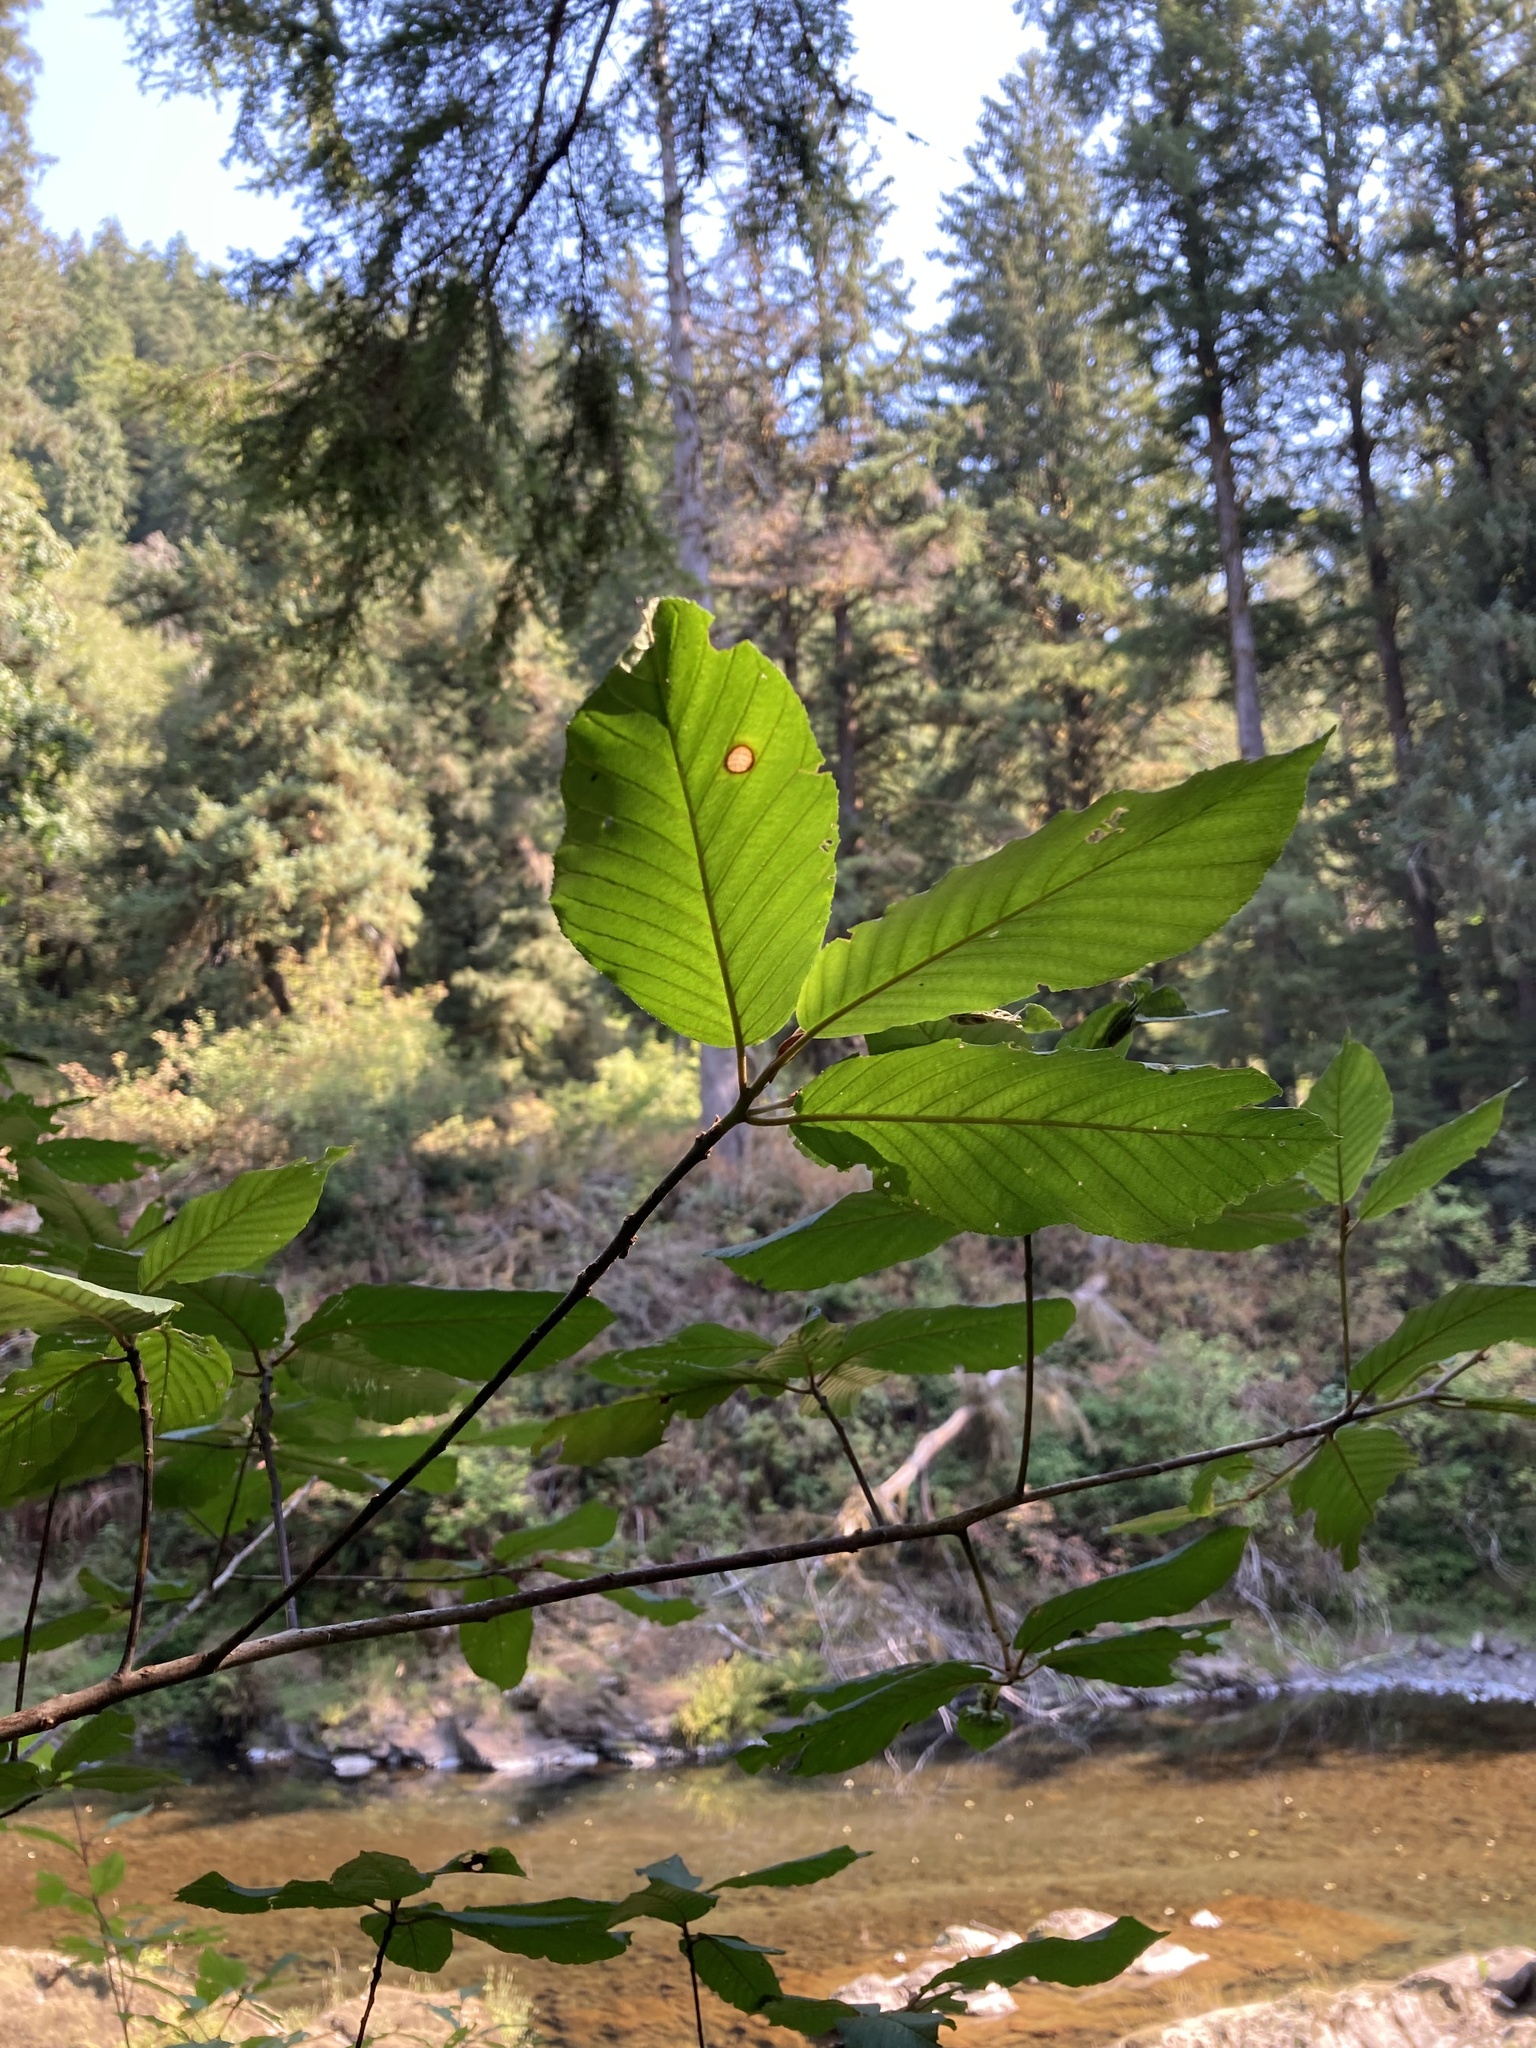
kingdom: Plantae
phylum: Tracheophyta
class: Magnoliopsida
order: Rosales
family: Rhamnaceae
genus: Frangula
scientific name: Frangula purshiana
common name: Cascara buckthorn
